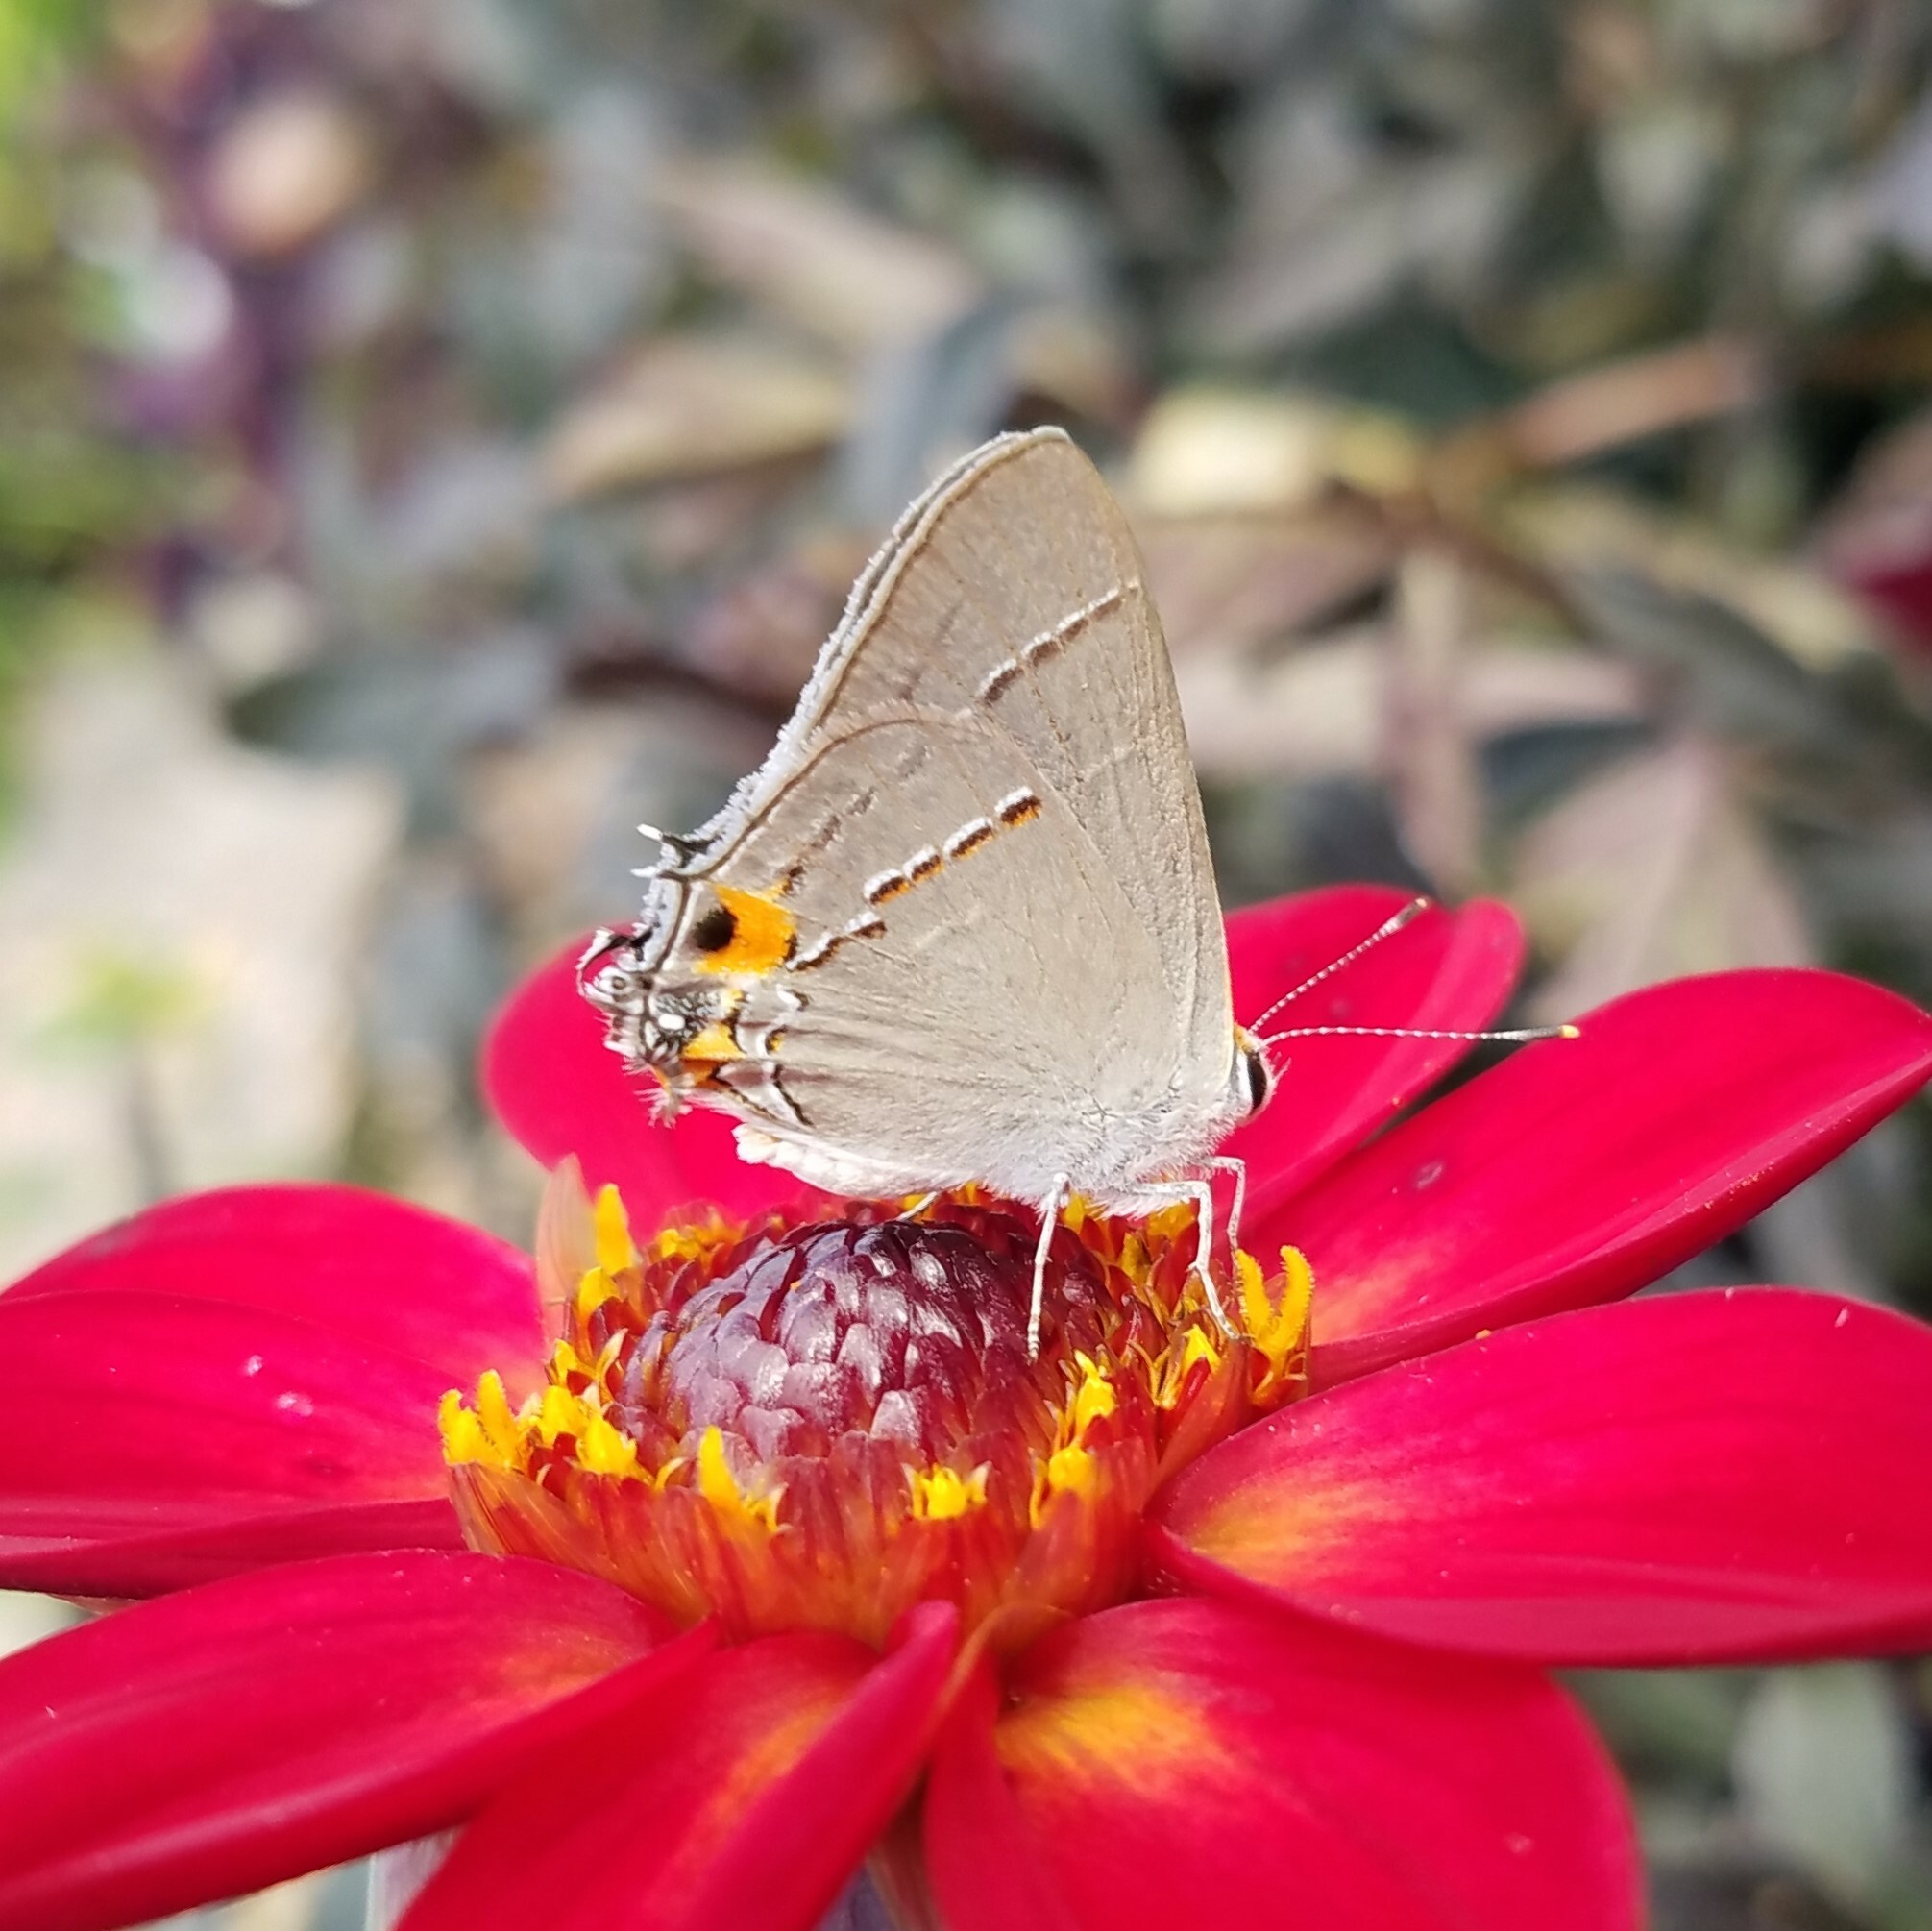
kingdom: Animalia
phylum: Arthropoda
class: Insecta
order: Lepidoptera
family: Lycaenidae
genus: Strymon
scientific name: Strymon melinus
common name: Gray hairstreak
